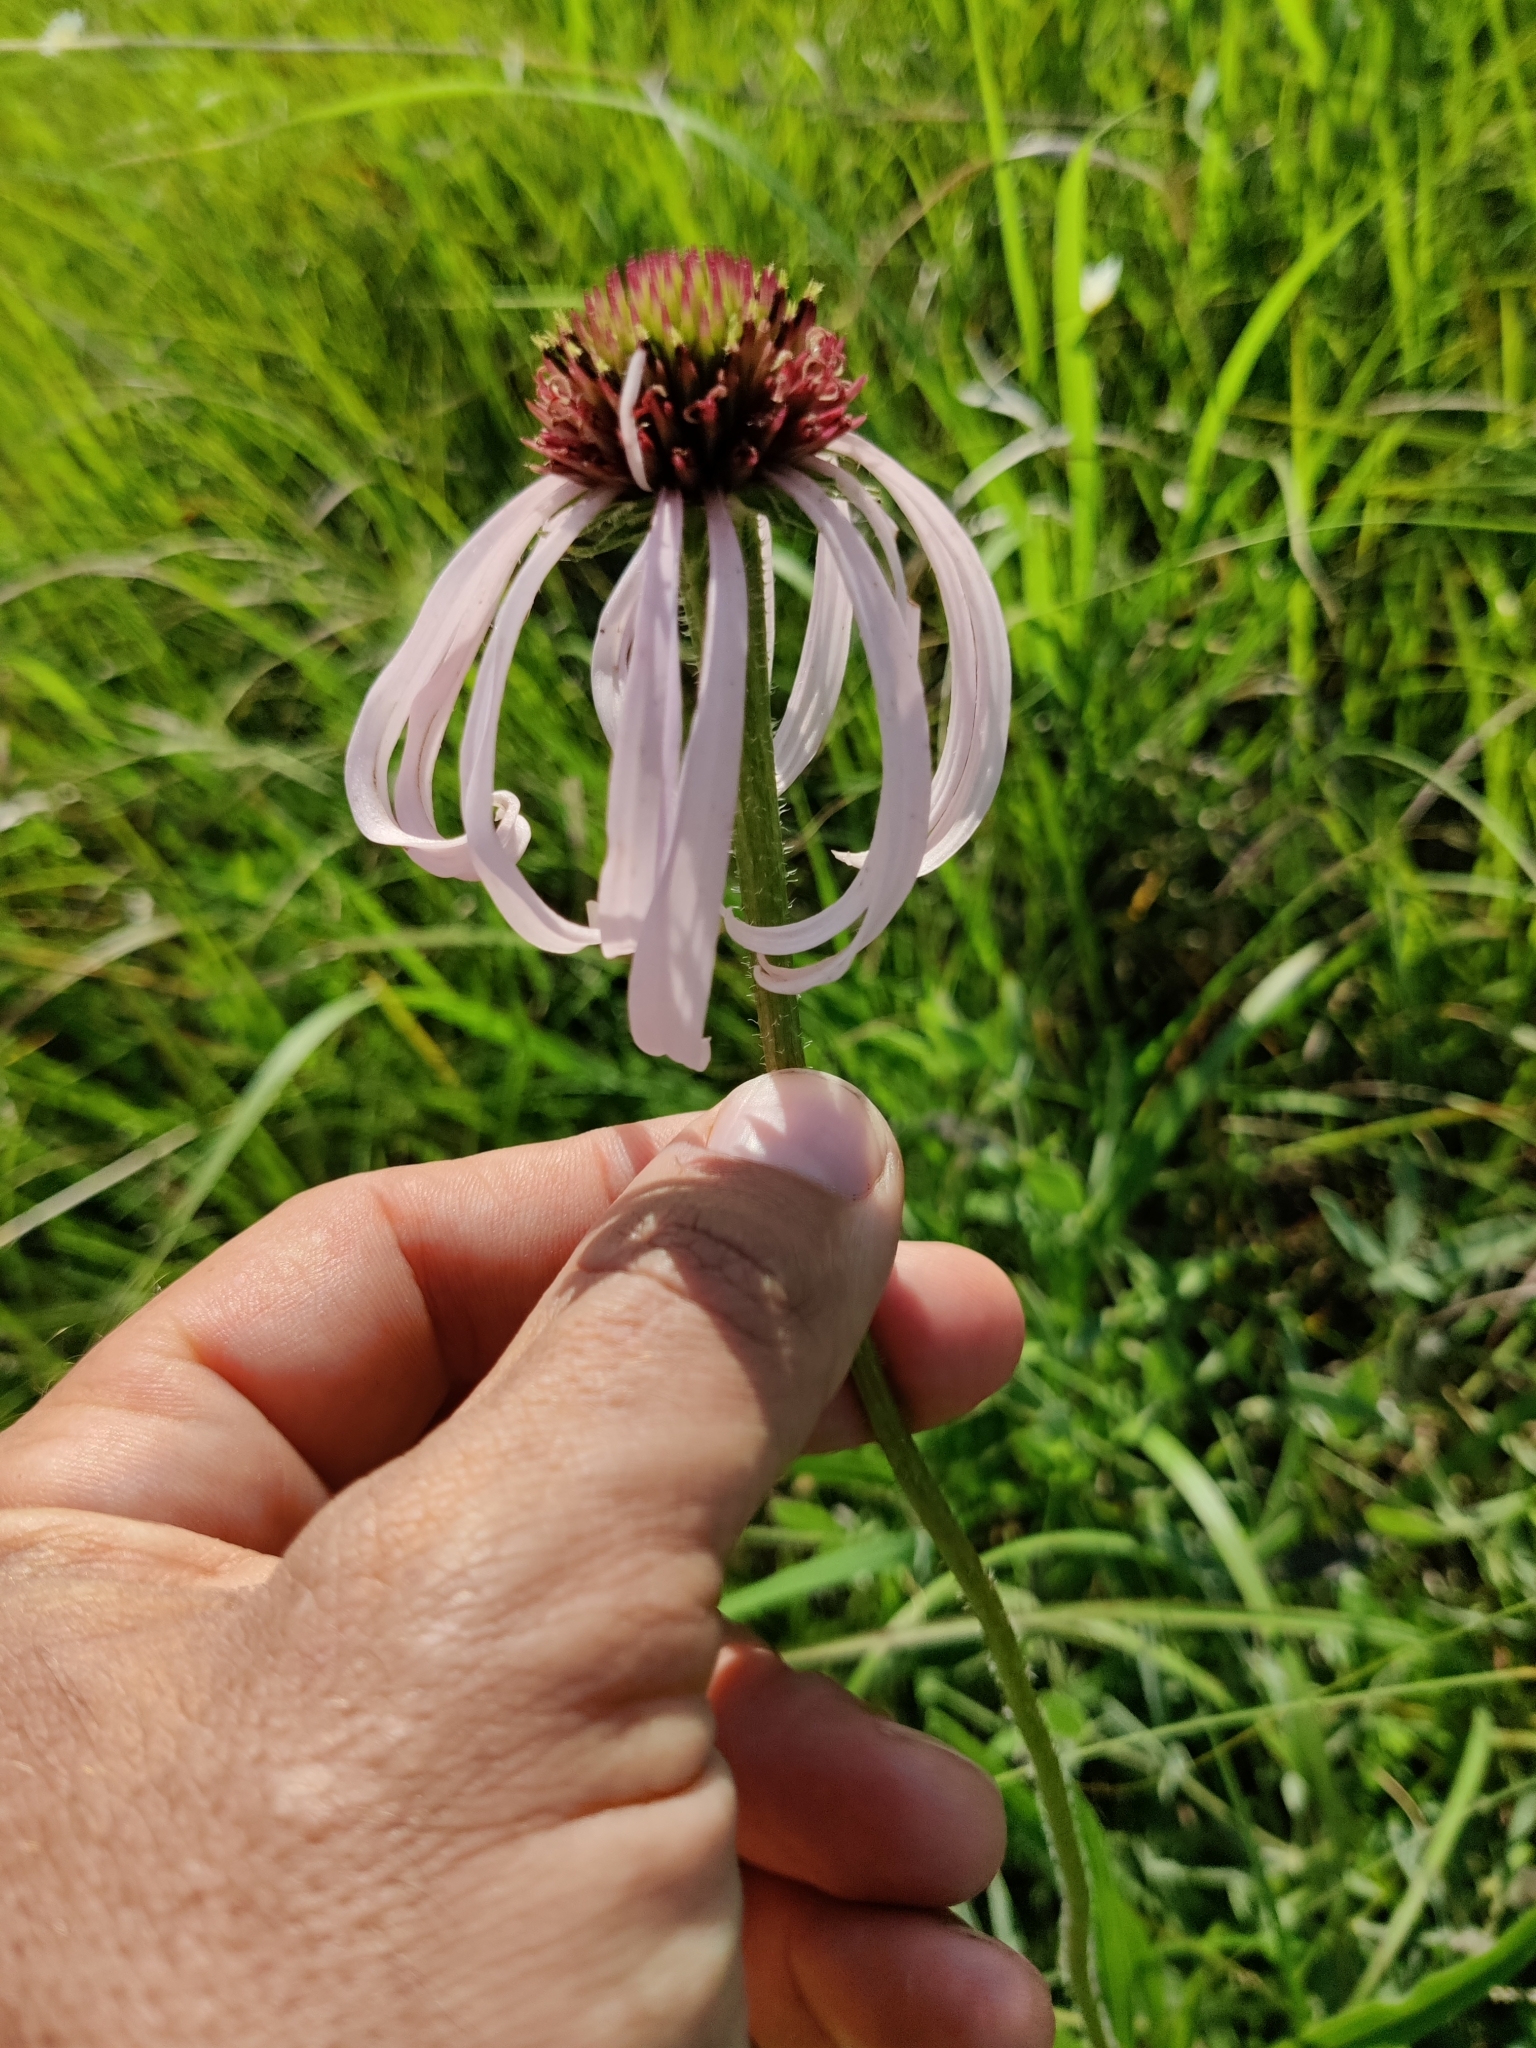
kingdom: Plantae
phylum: Tracheophyta
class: Magnoliopsida
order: Asterales
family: Asteraceae
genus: Echinacea
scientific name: Echinacea pallida
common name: Pale echinacea
